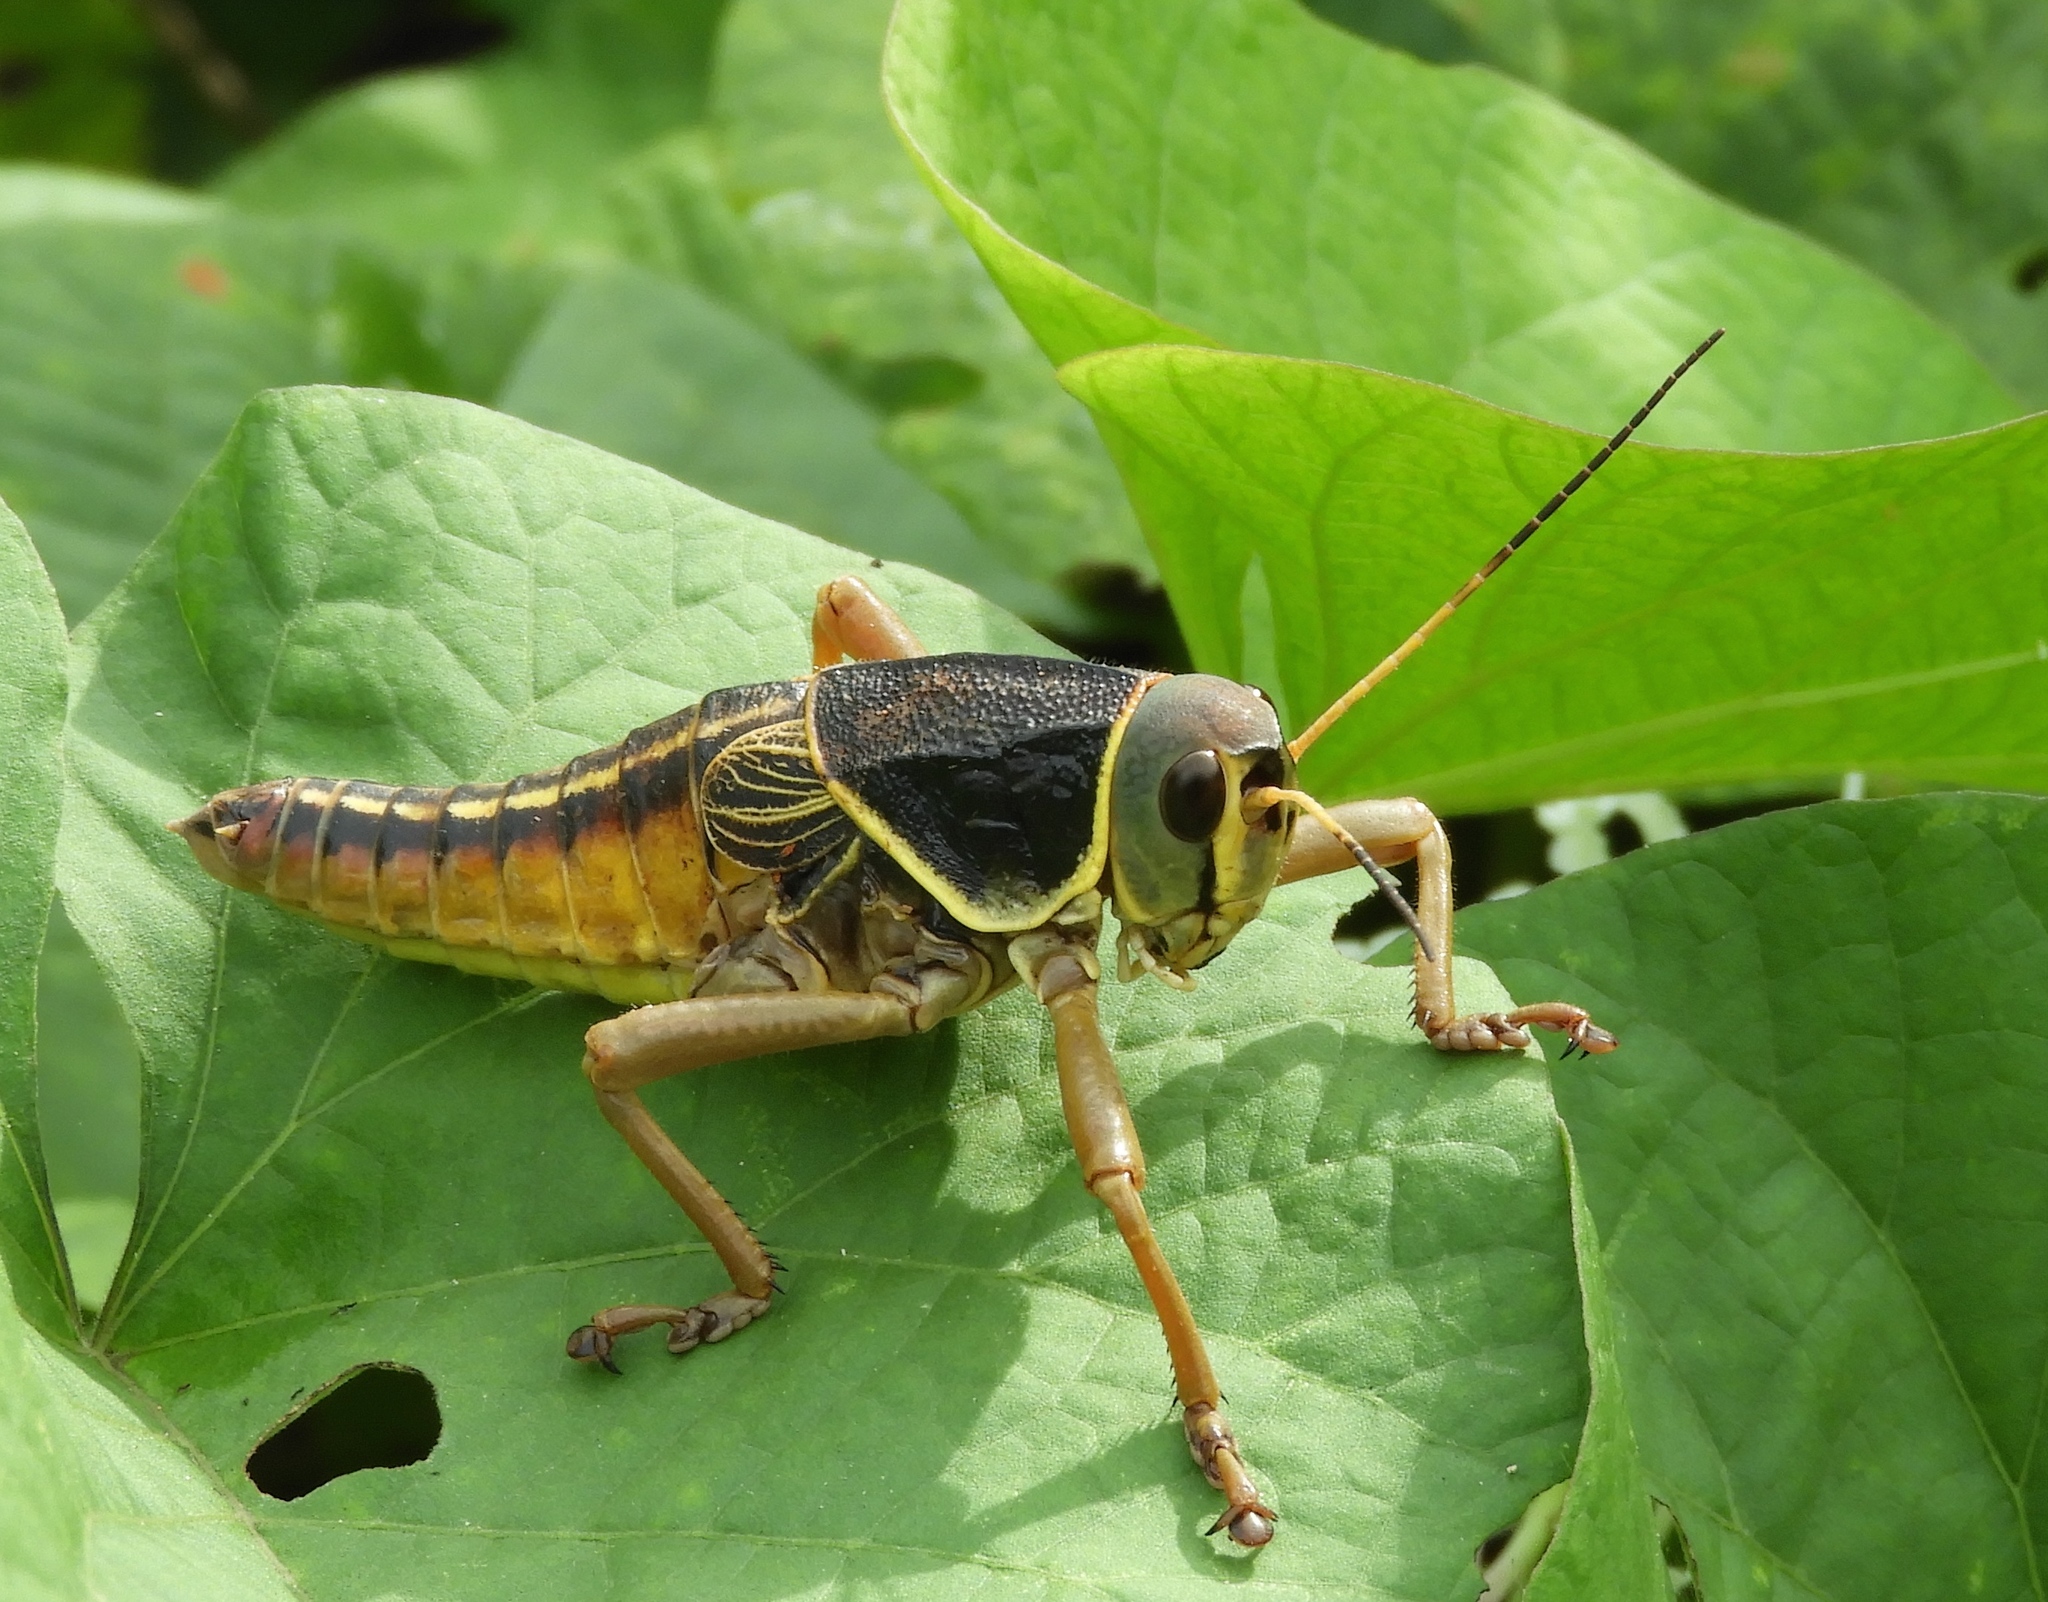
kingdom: Animalia
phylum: Arthropoda
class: Insecta
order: Orthoptera
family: Romaleidae
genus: Brachystola
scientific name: Brachystola behrensii
